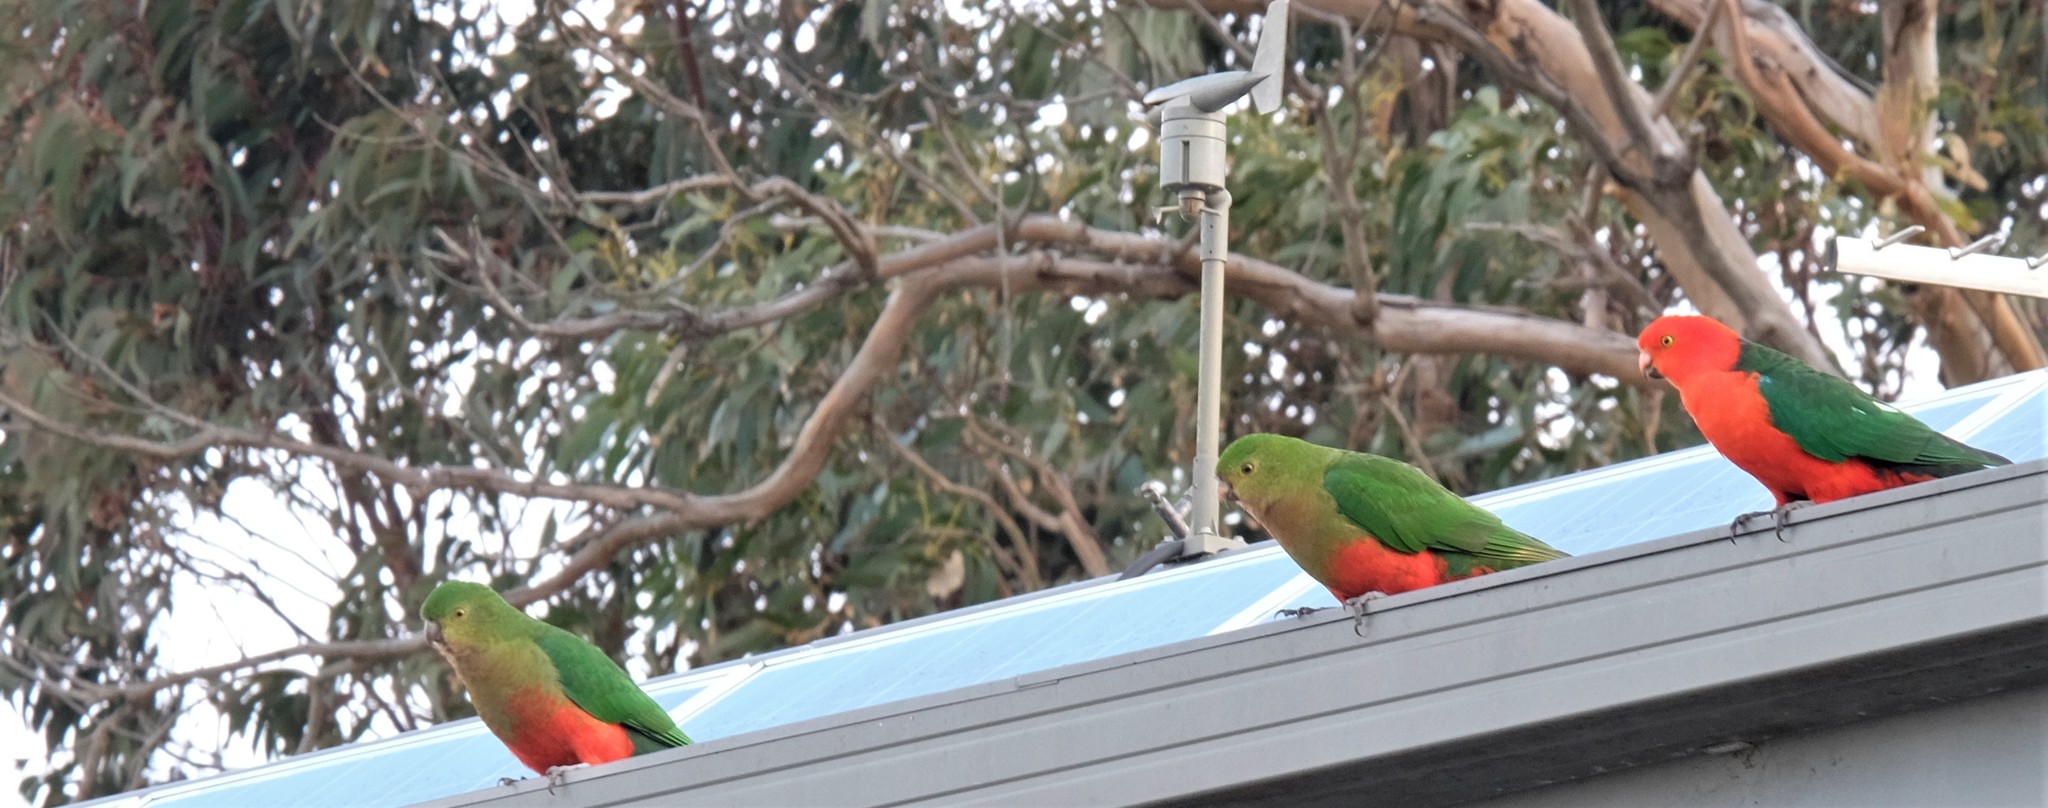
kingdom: Animalia
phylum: Chordata
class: Aves
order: Psittaciformes
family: Psittacidae
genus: Alisterus
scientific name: Alisterus scapularis
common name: Australian king parrot
